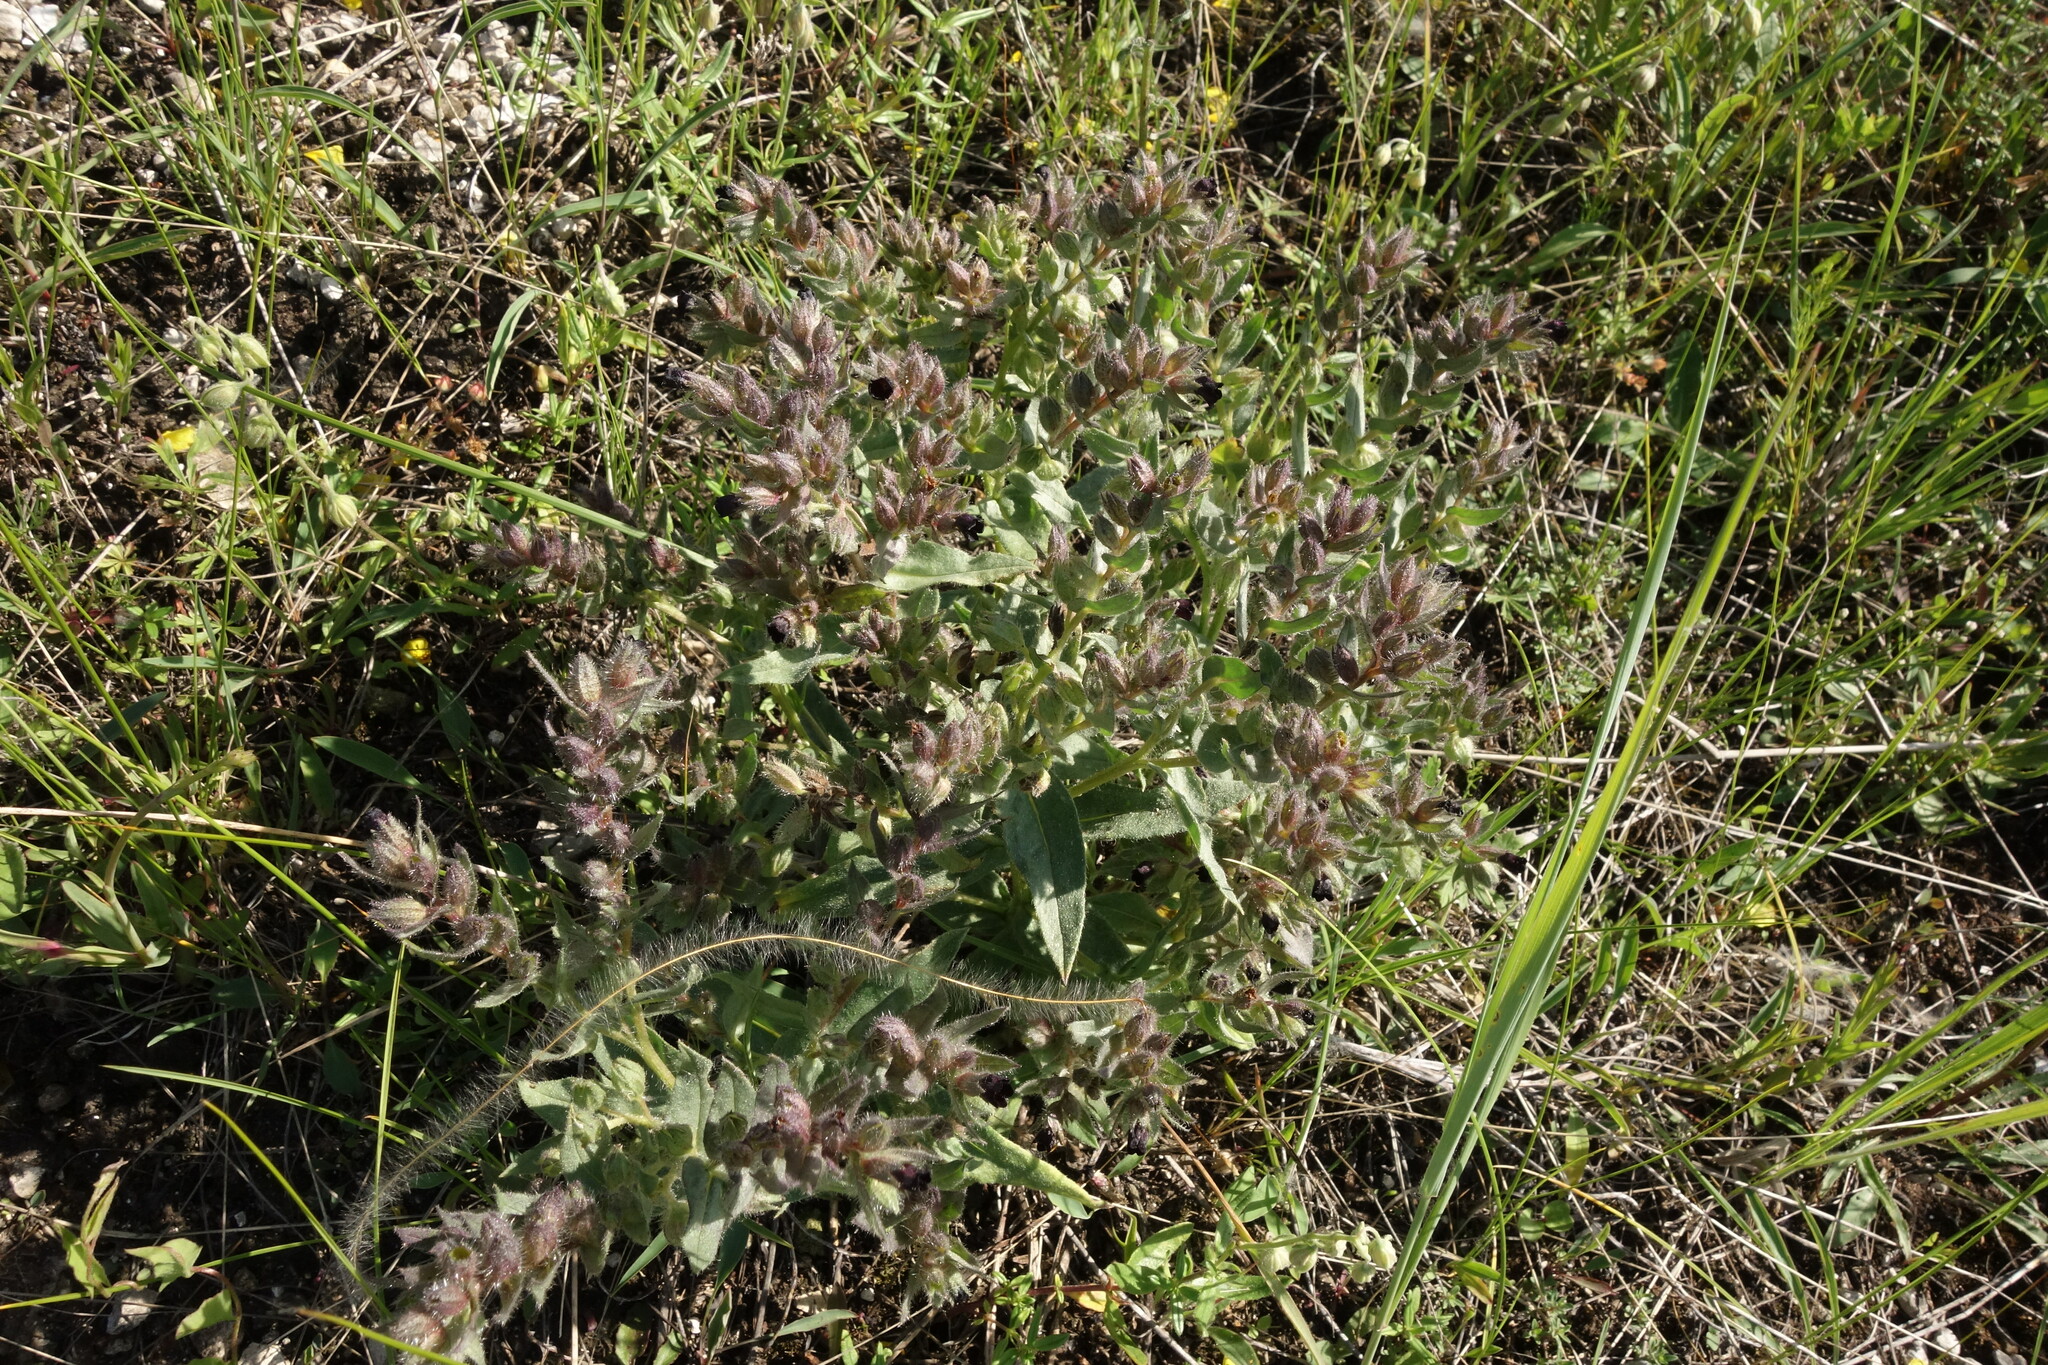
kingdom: Plantae
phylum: Tracheophyta
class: Magnoliopsida
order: Boraginales
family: Boraginaceae
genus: Nonea
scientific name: Nonea pulla
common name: Brown nonea
